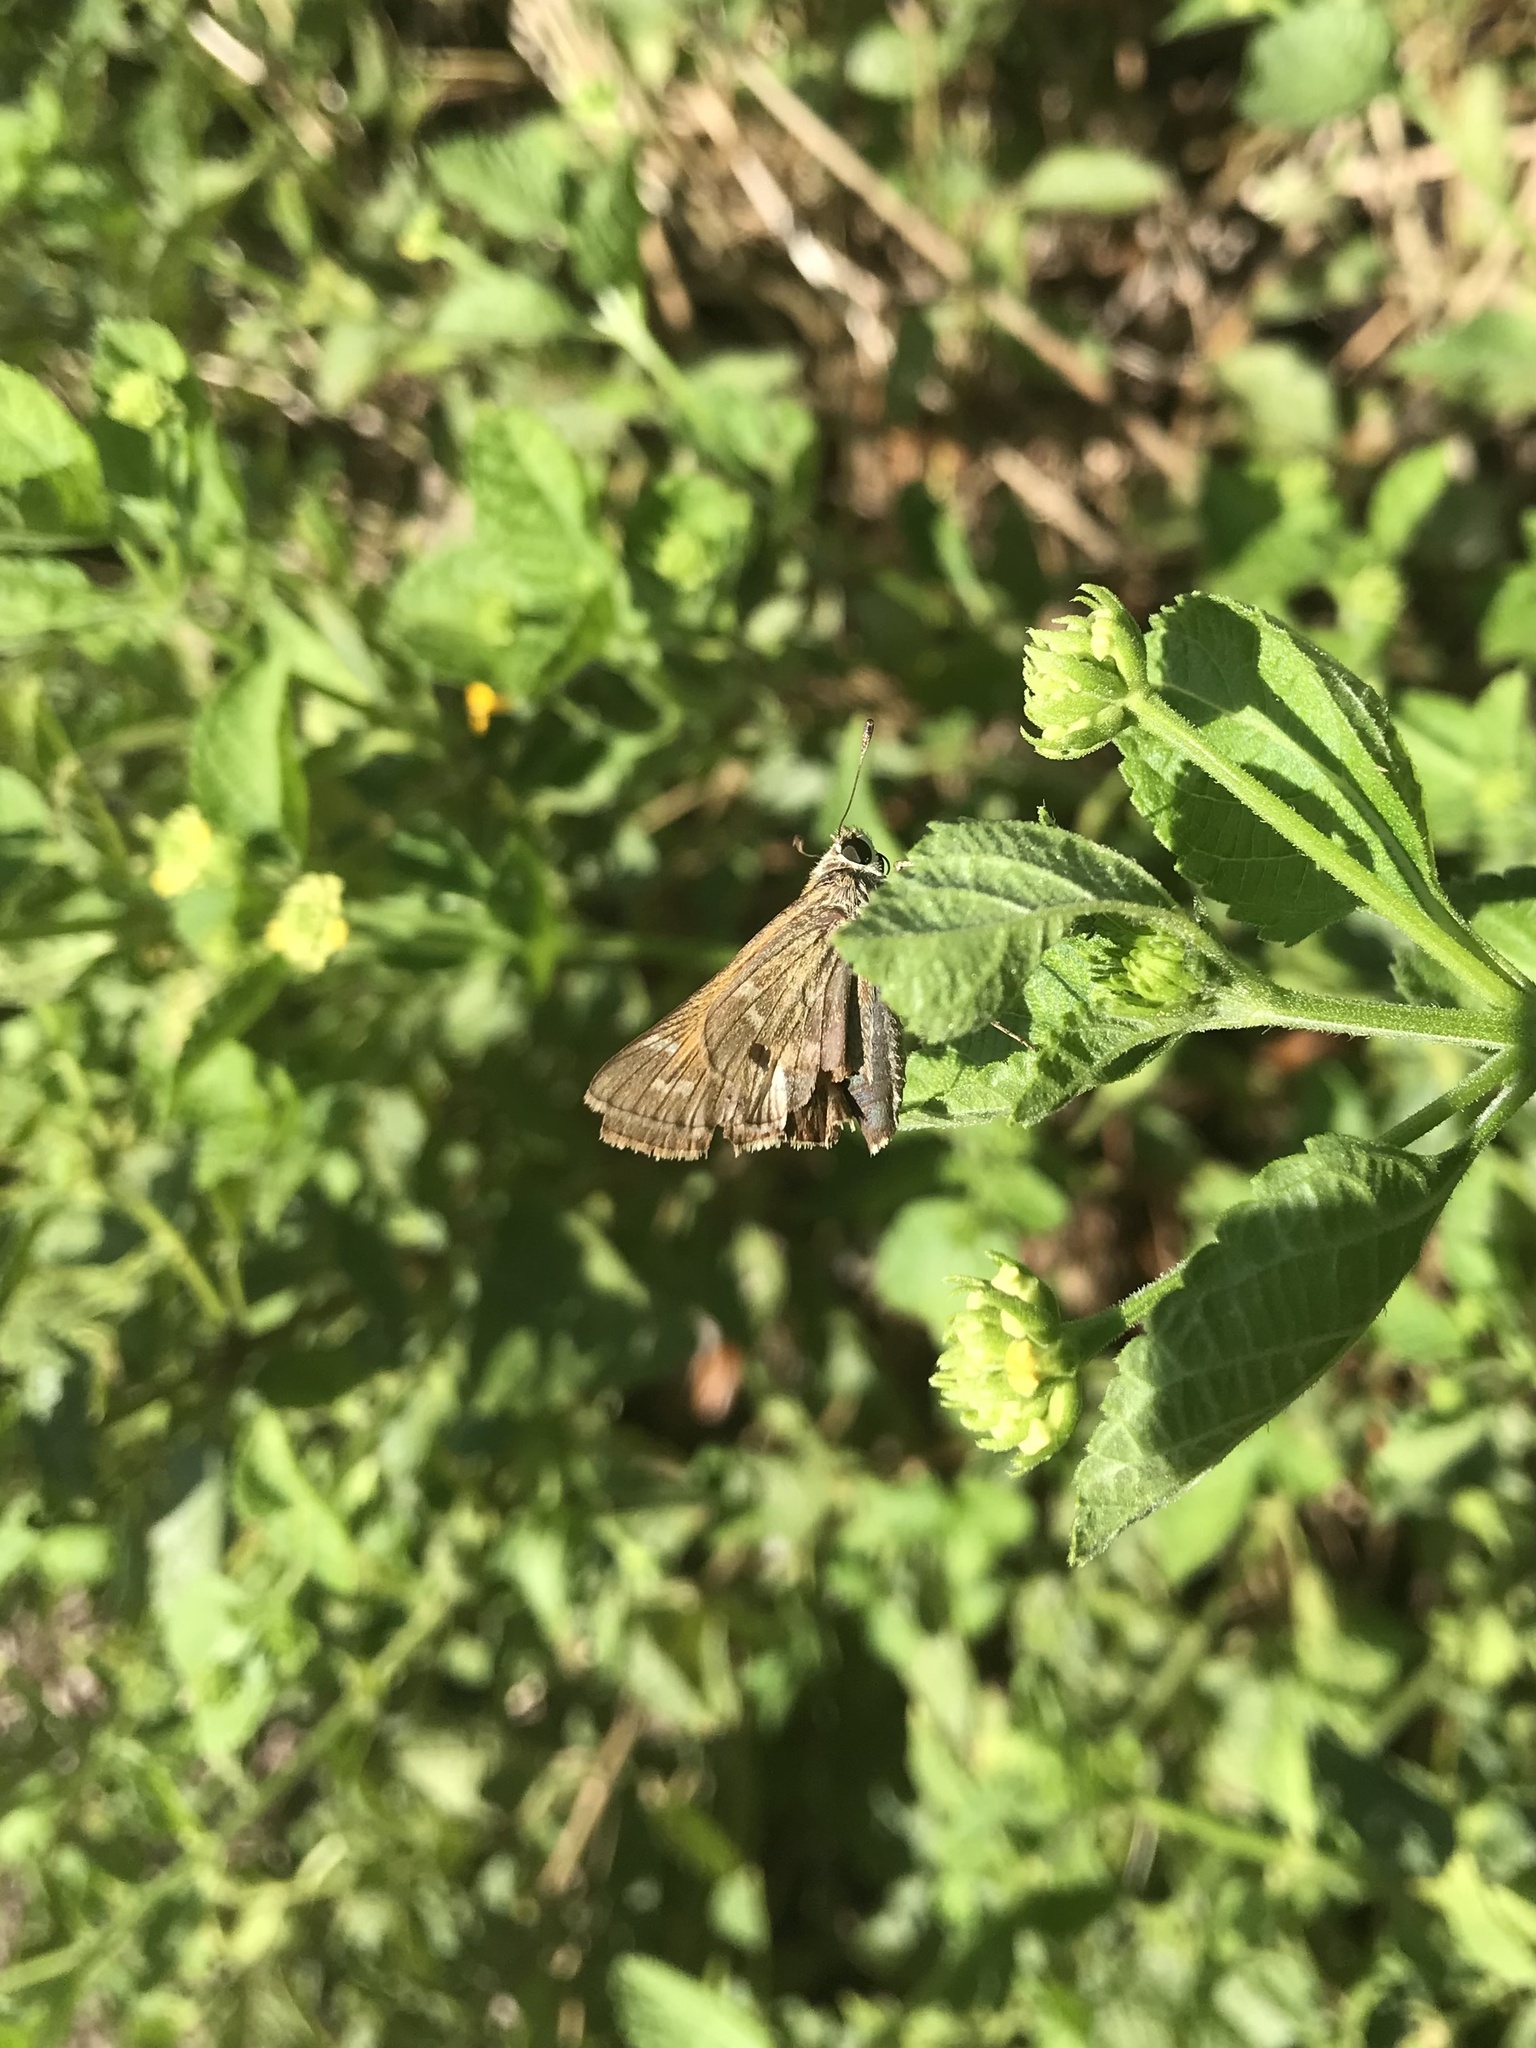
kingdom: Animalia
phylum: Arthropoda
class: Insecta
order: Lepidoptera
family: Hesperiidae
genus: Atalopedes
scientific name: Atalopedes
